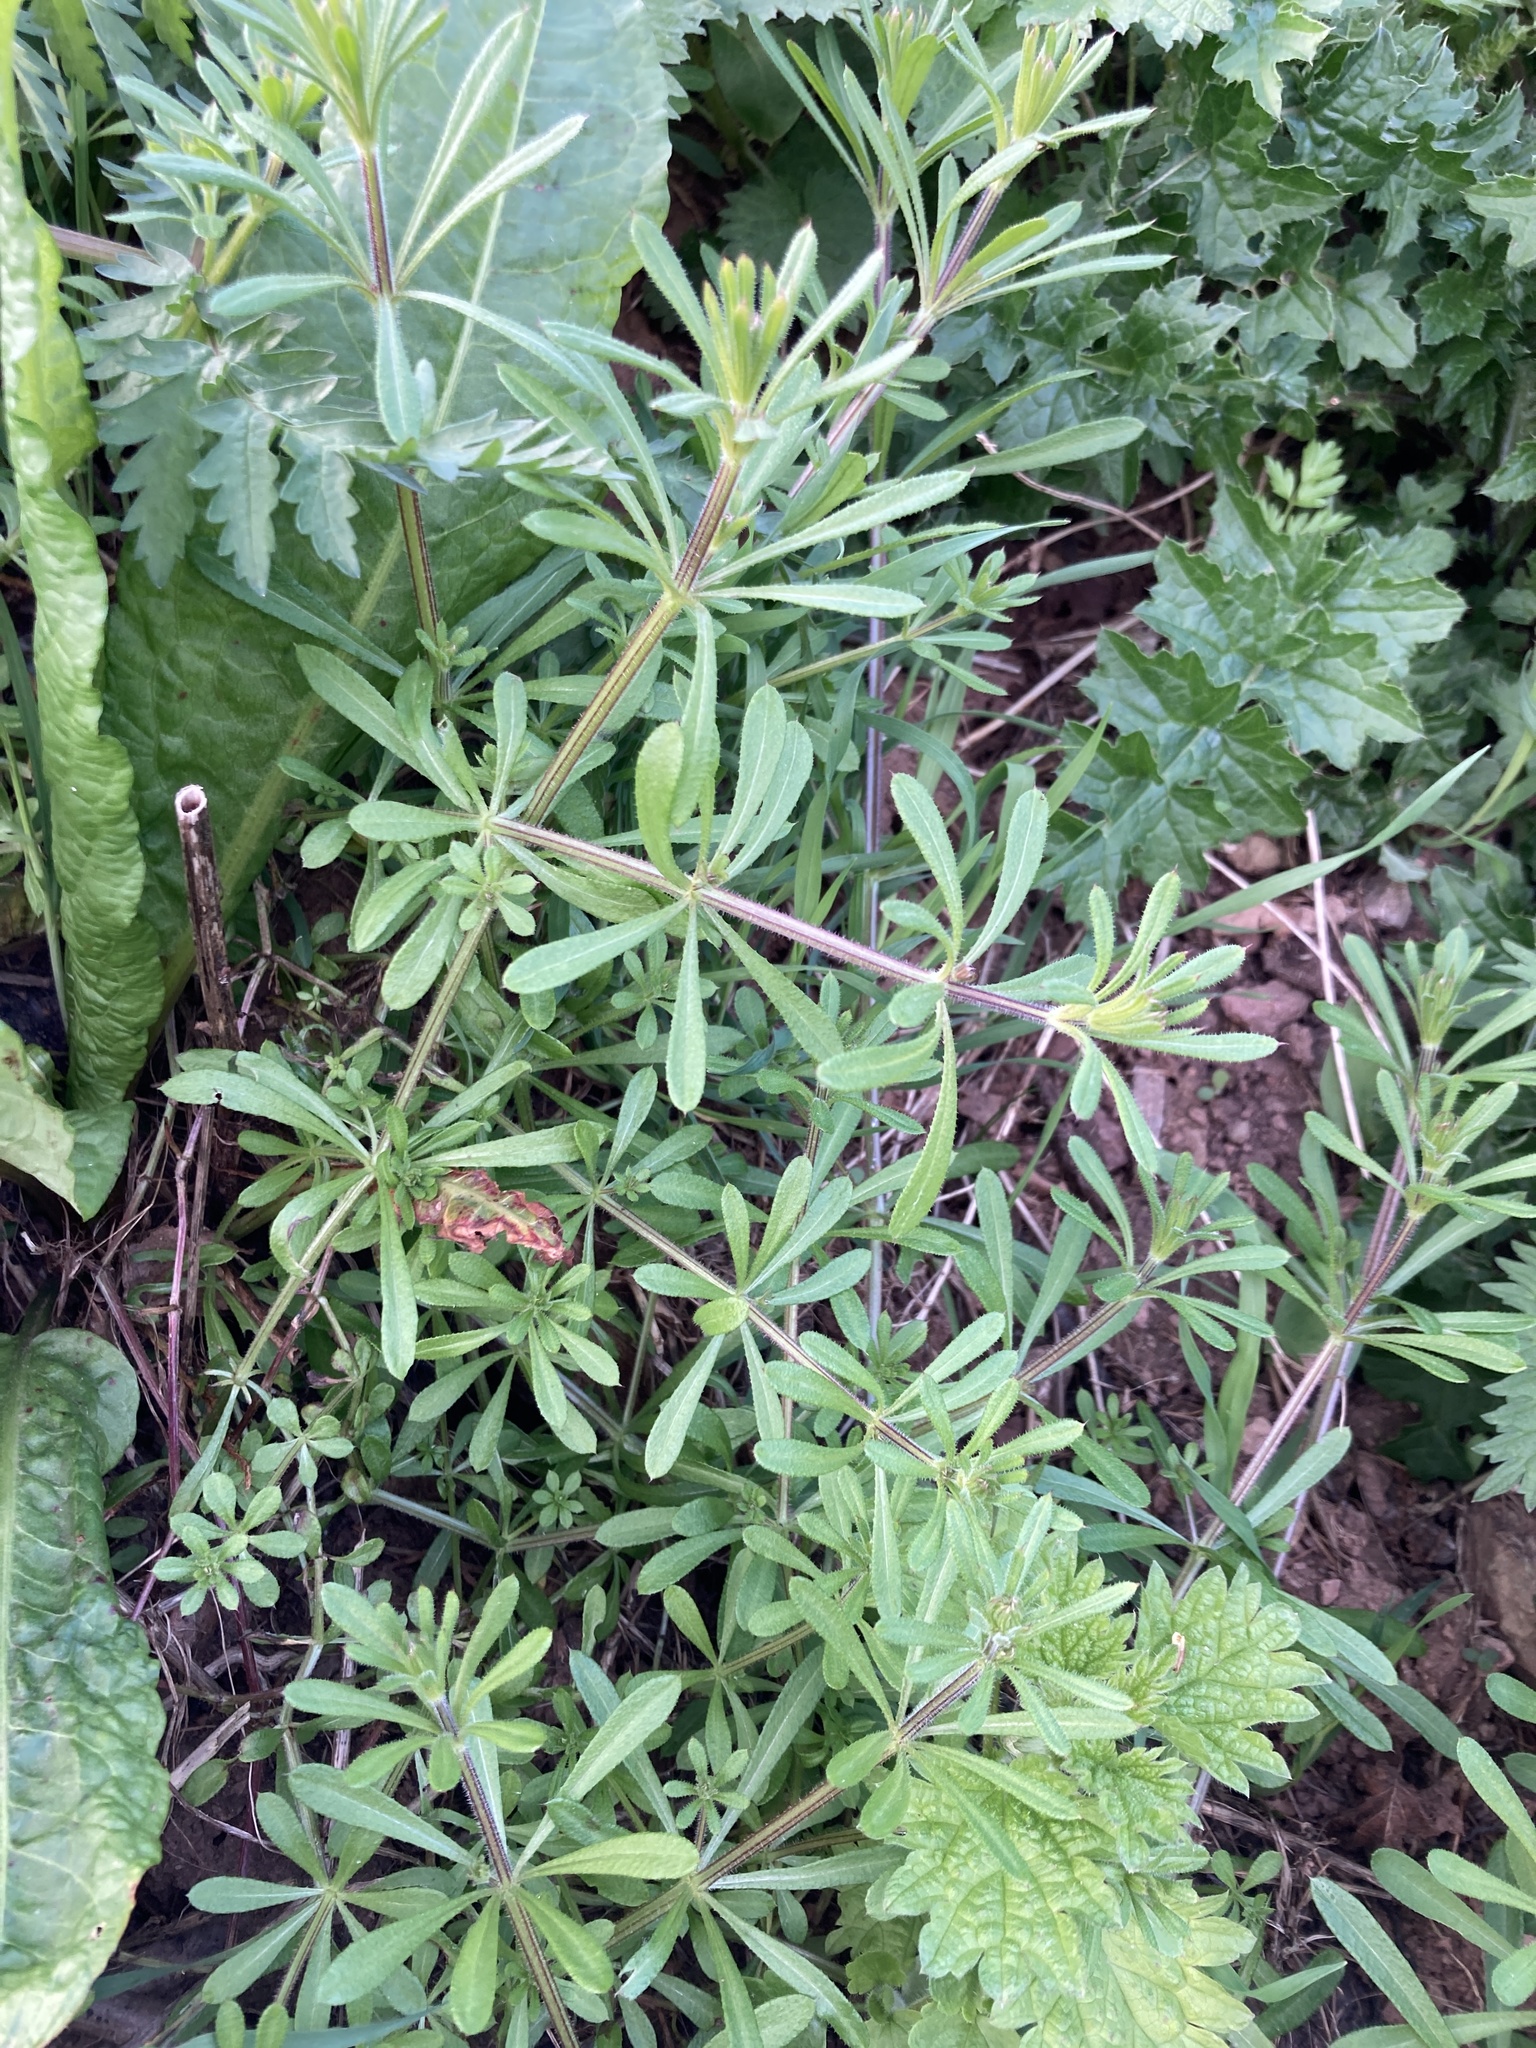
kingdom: Plantae
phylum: Tracheophyta
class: Magnoliopsida
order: Gentianales
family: Rubiaceae
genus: Galium
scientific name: Galium aparine
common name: Cleavers
